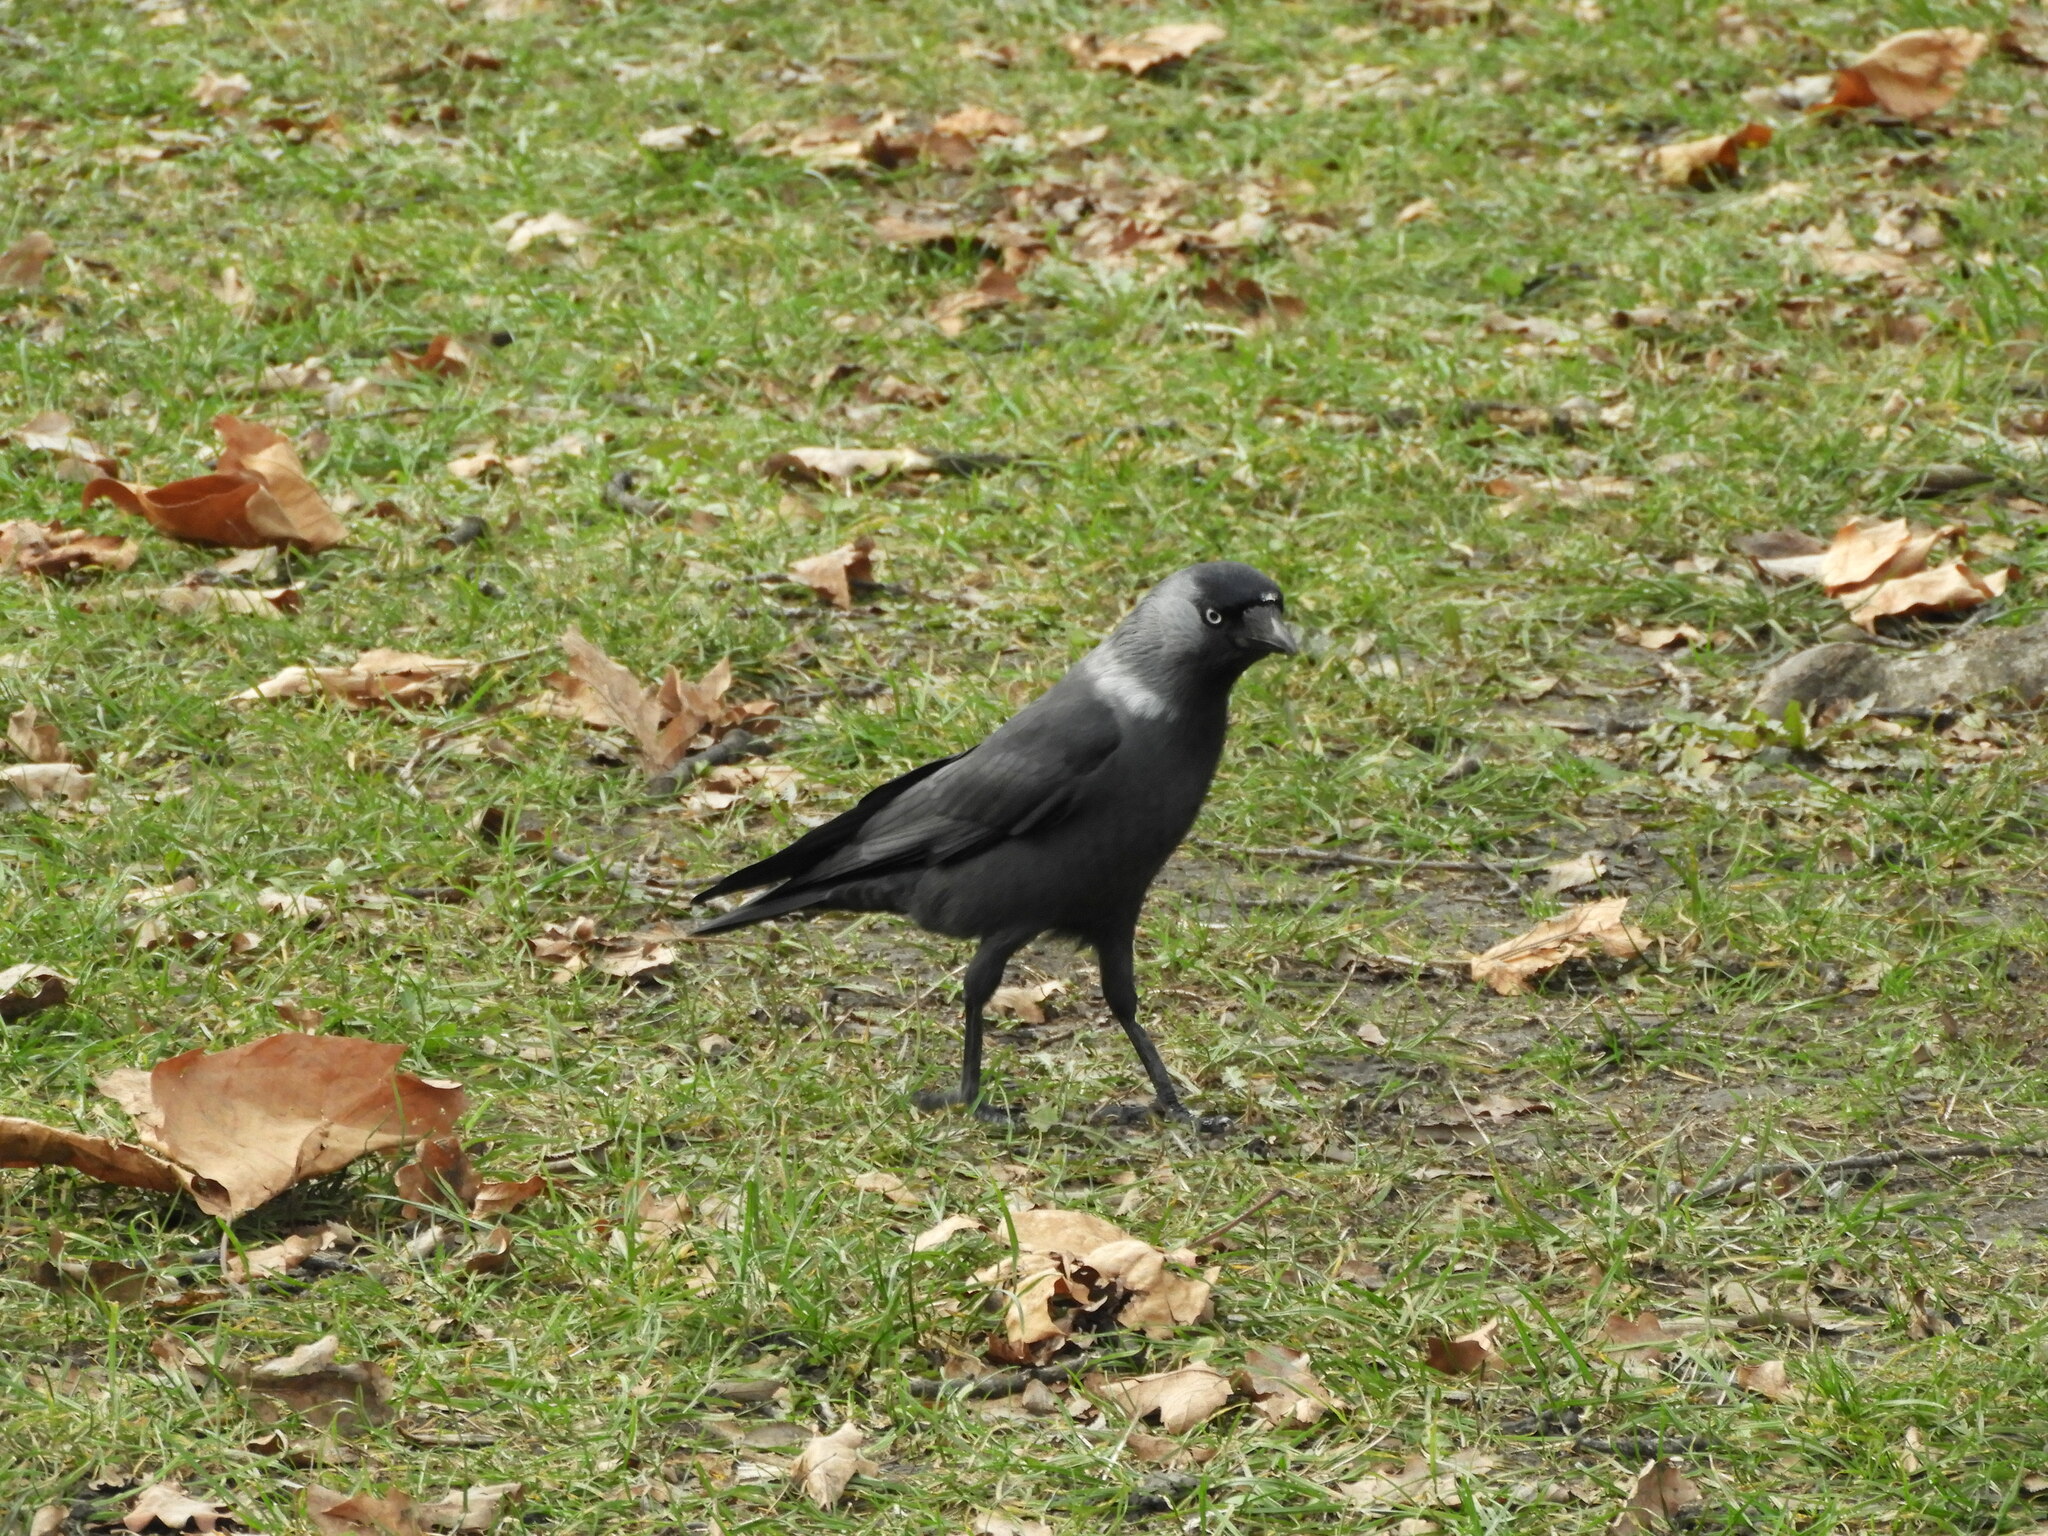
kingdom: Animalia
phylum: Chordata
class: Aves
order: Passeriformes
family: Corvidae
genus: Coloeus
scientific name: Coloeus monedula
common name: Western jackdaw
